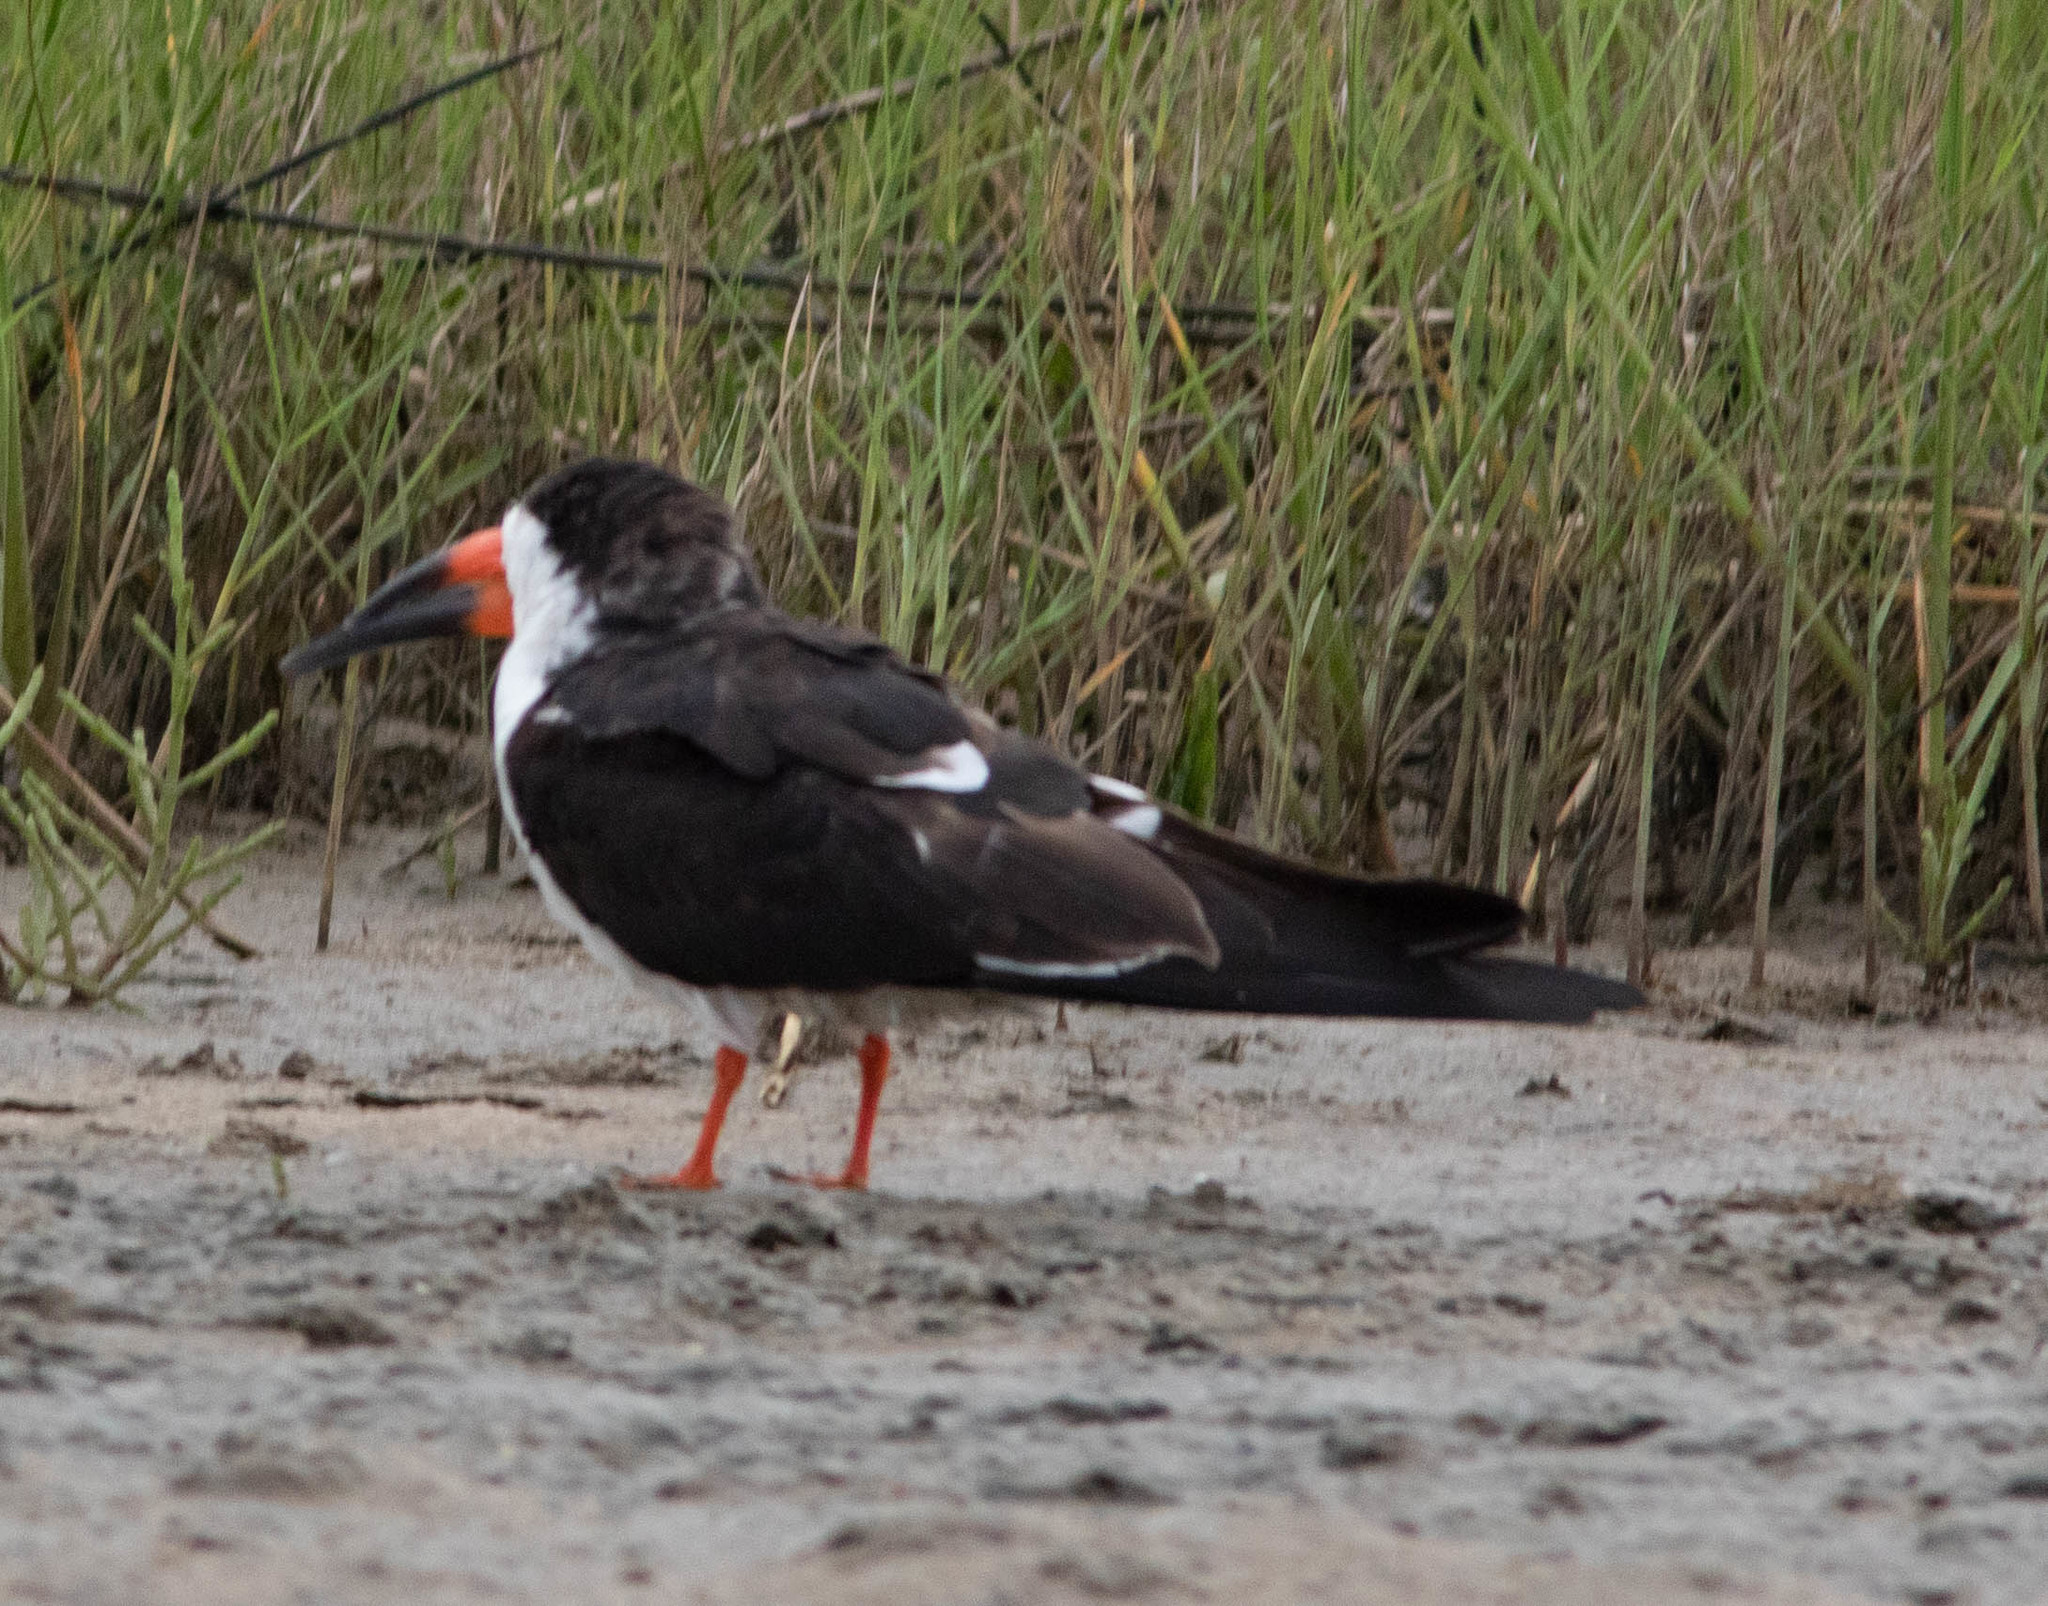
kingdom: Animalia
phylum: Chordata
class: Aves
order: Charadriiformes
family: Laridae
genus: Rynchops
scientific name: Rynchops niger
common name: Black skimmer
